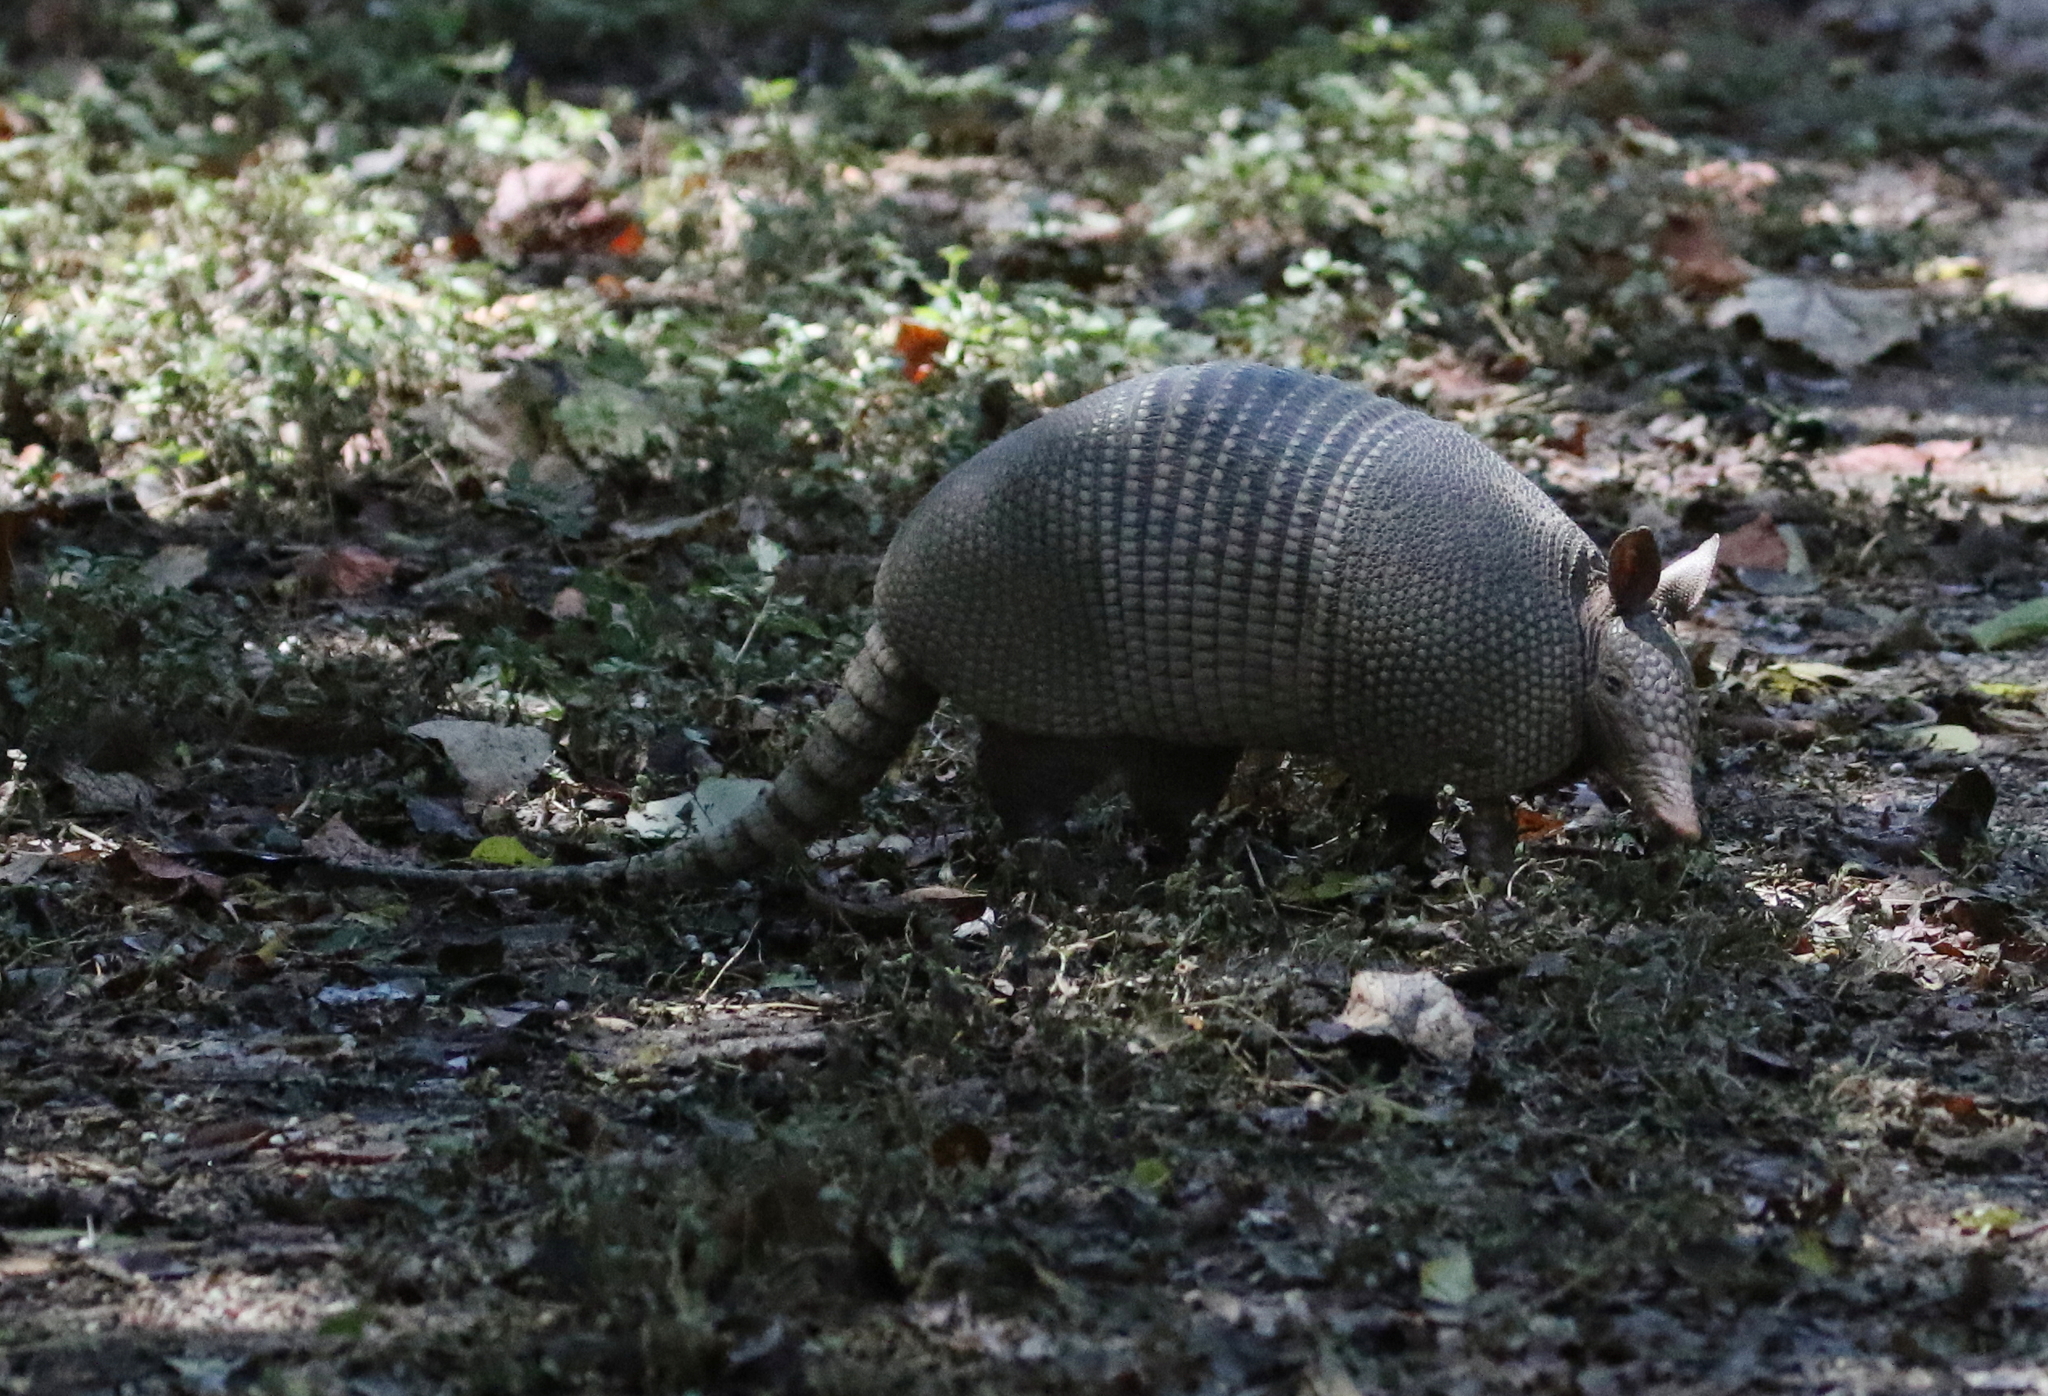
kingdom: Animalia
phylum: Chordata
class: Mammalia
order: Cingulata
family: Dasypodidae
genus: Dasypus
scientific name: Dasypus novemcinctus
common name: Nine-banded armadillo
